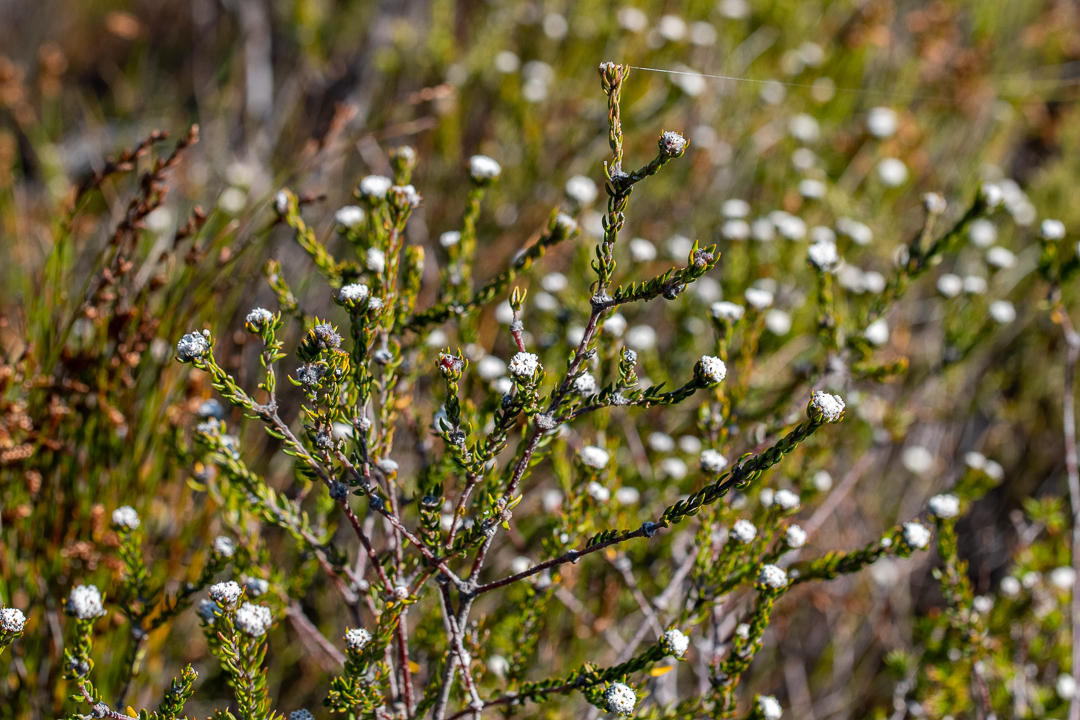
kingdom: Plantae
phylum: Tracheophyta
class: Magnoliopsida
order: Rosales
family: Rhamnaceae
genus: Phylica
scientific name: Phylica ericoides
